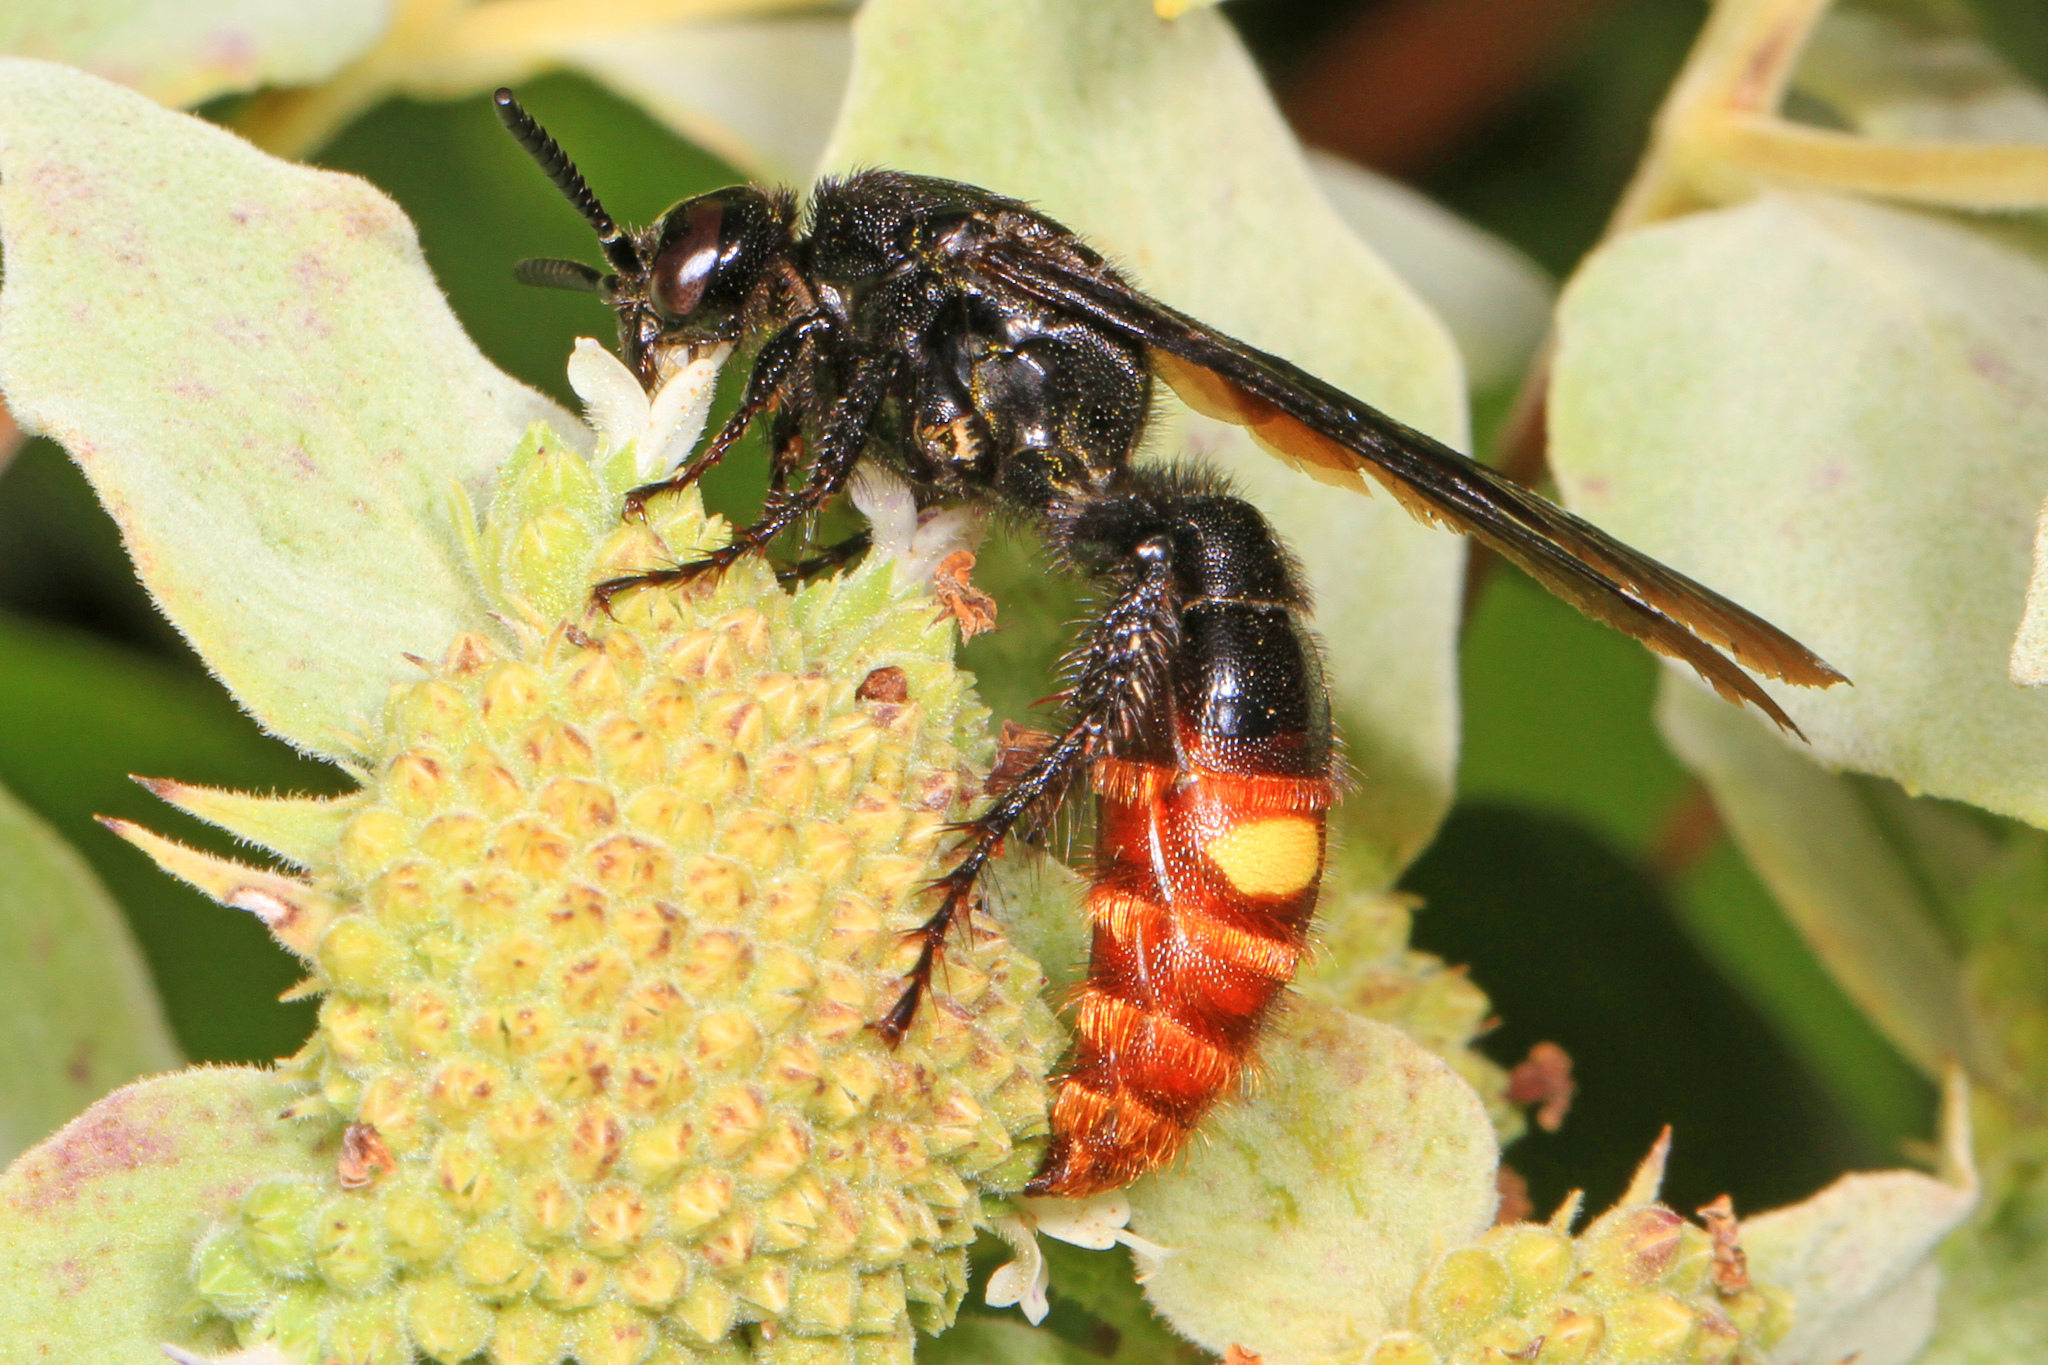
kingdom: Animalia
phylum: Arthropoda
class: Insecta
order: Hymenoptera
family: Scoliidae
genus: Scolia
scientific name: Scolia dubia
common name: Blue-winged scoliid wasp
